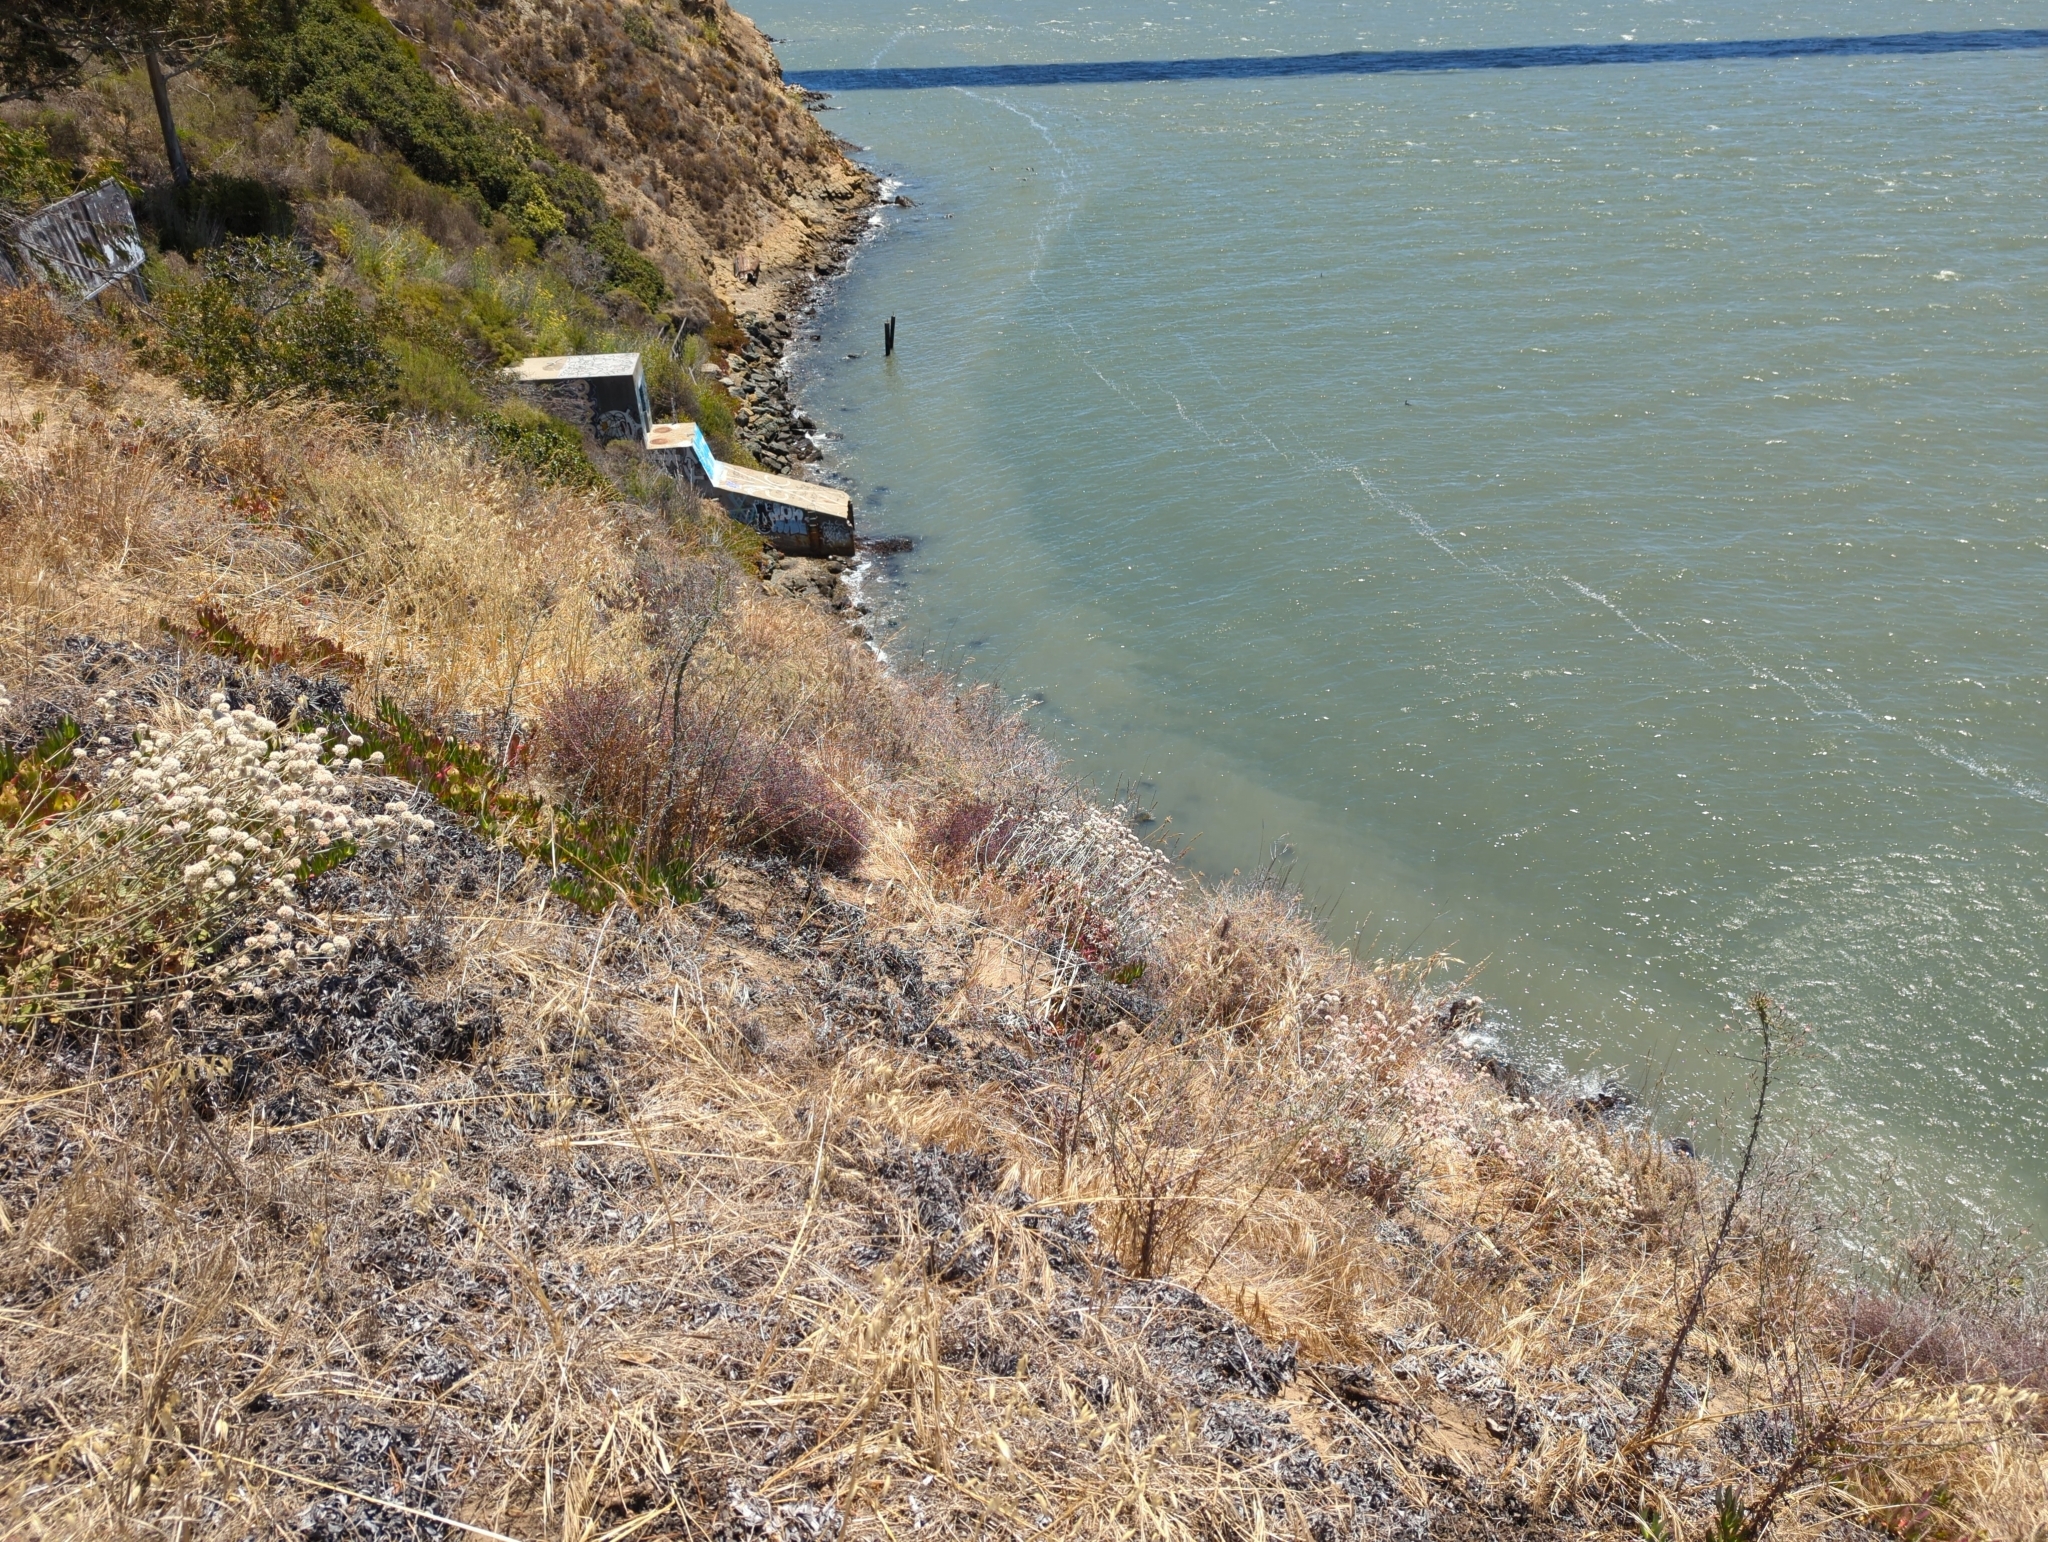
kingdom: Plantae
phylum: Tracheophyta
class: Magnoliopsida
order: Asterales
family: Asteraceae
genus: Stephanomeria
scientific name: Stephanomeria virgata
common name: Virgate wirelettuce
